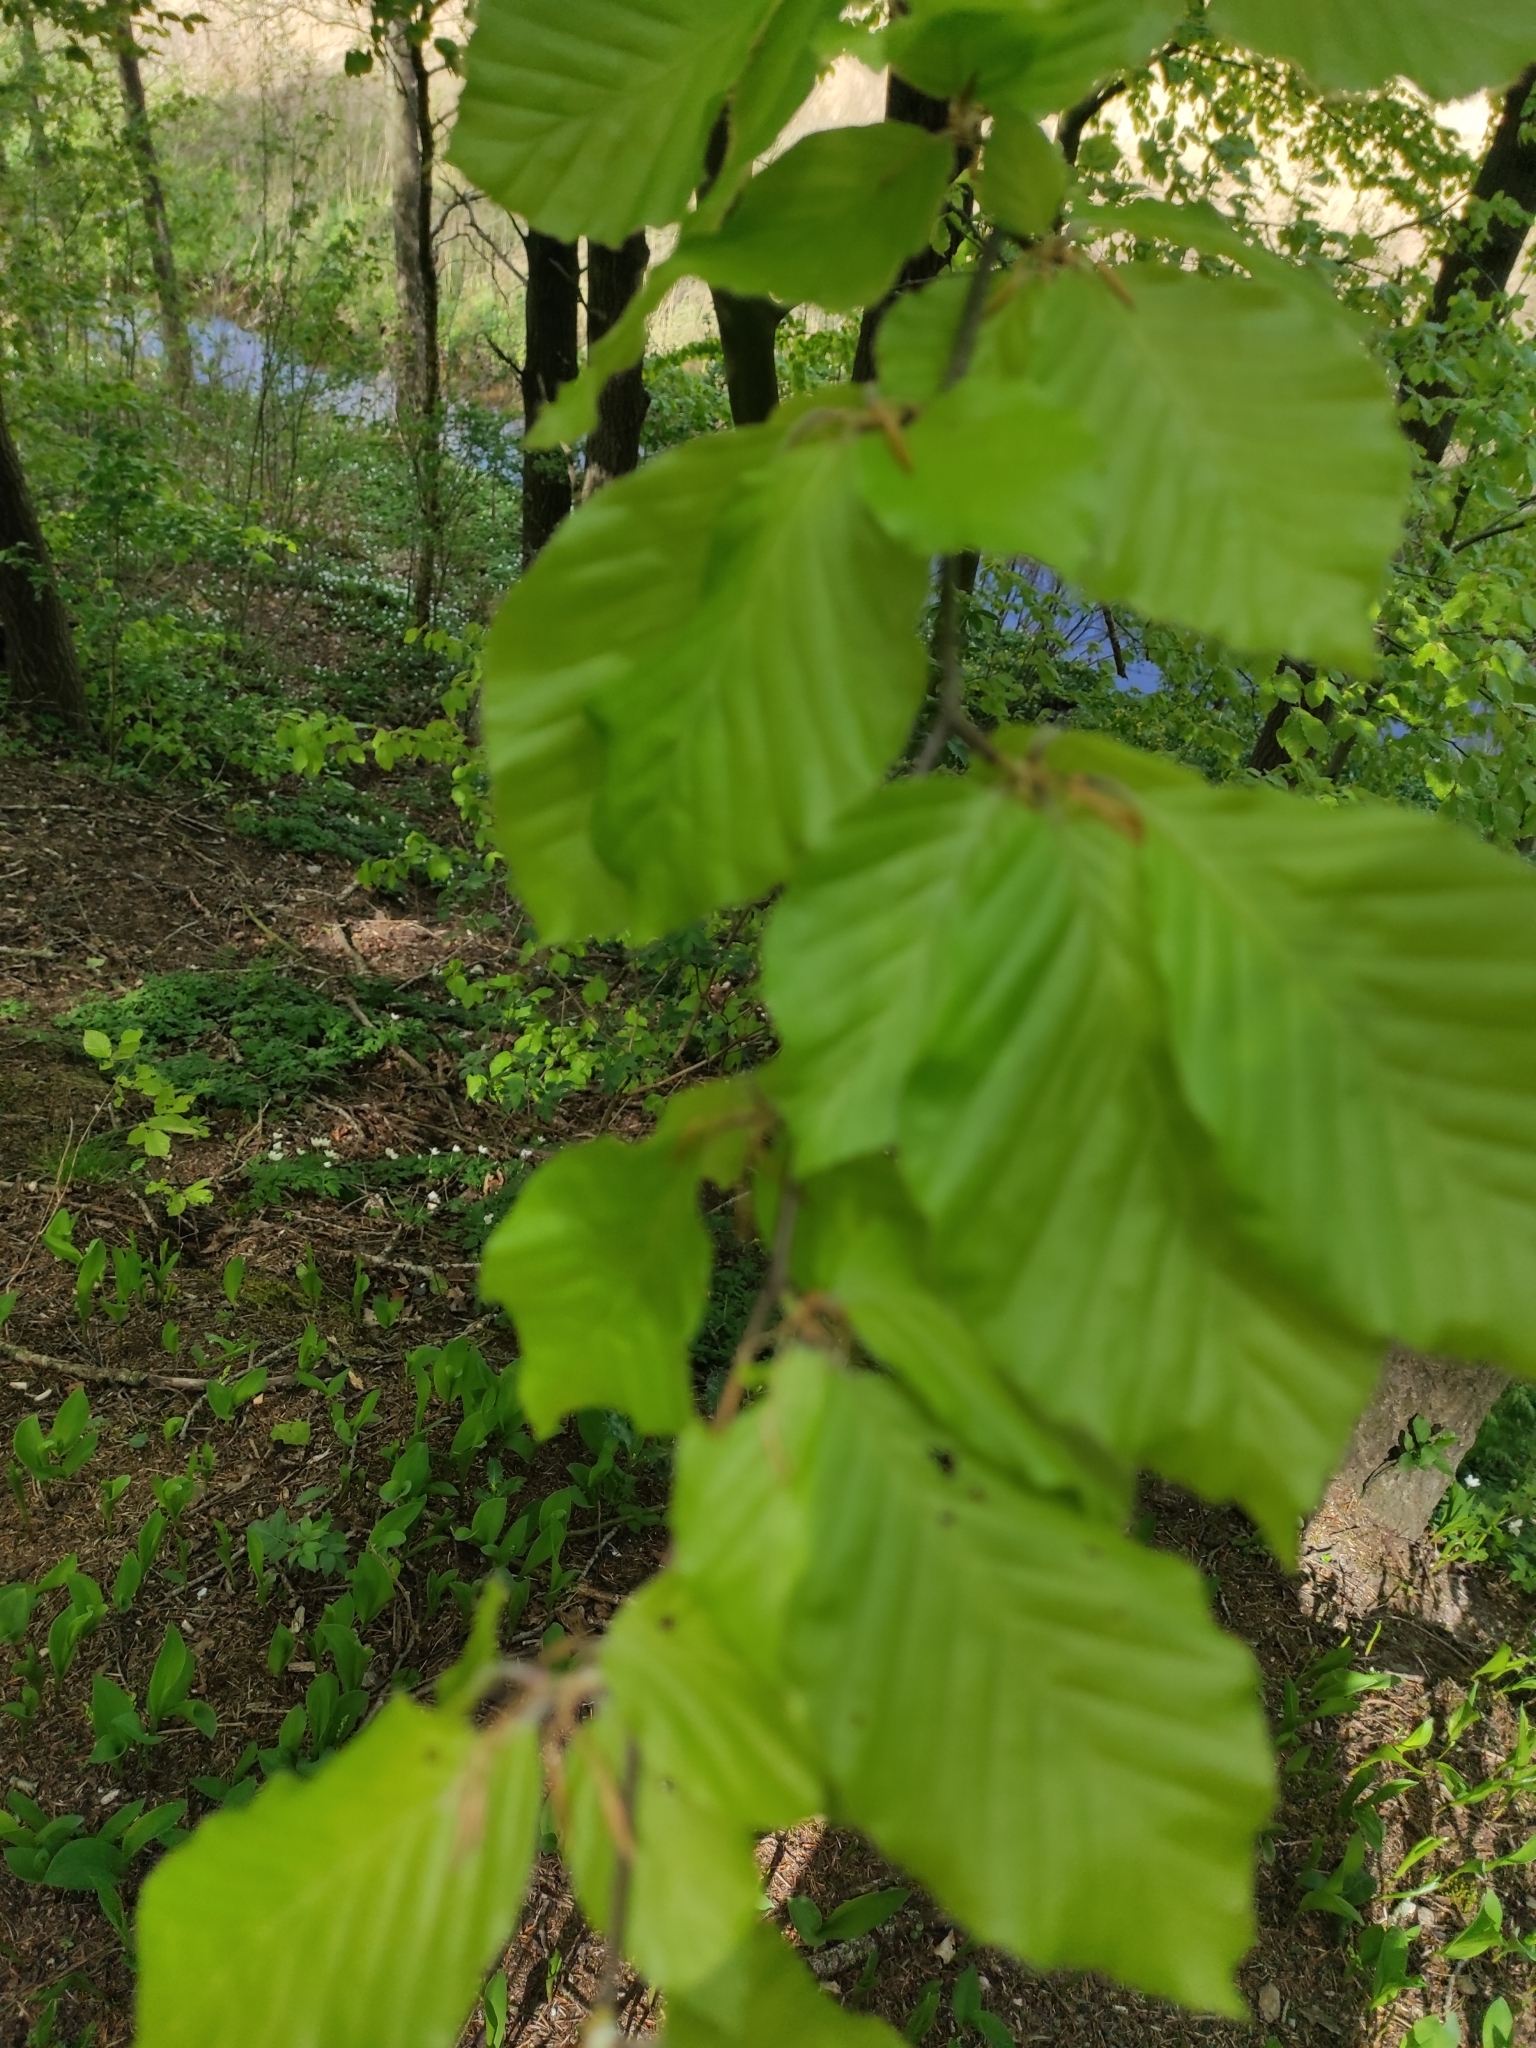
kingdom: Plantae
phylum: Tracheophyta
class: Magnoliopsida
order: Fagales
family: Fagaceae
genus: Fagus
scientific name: Fagus sylvatica
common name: Beech
